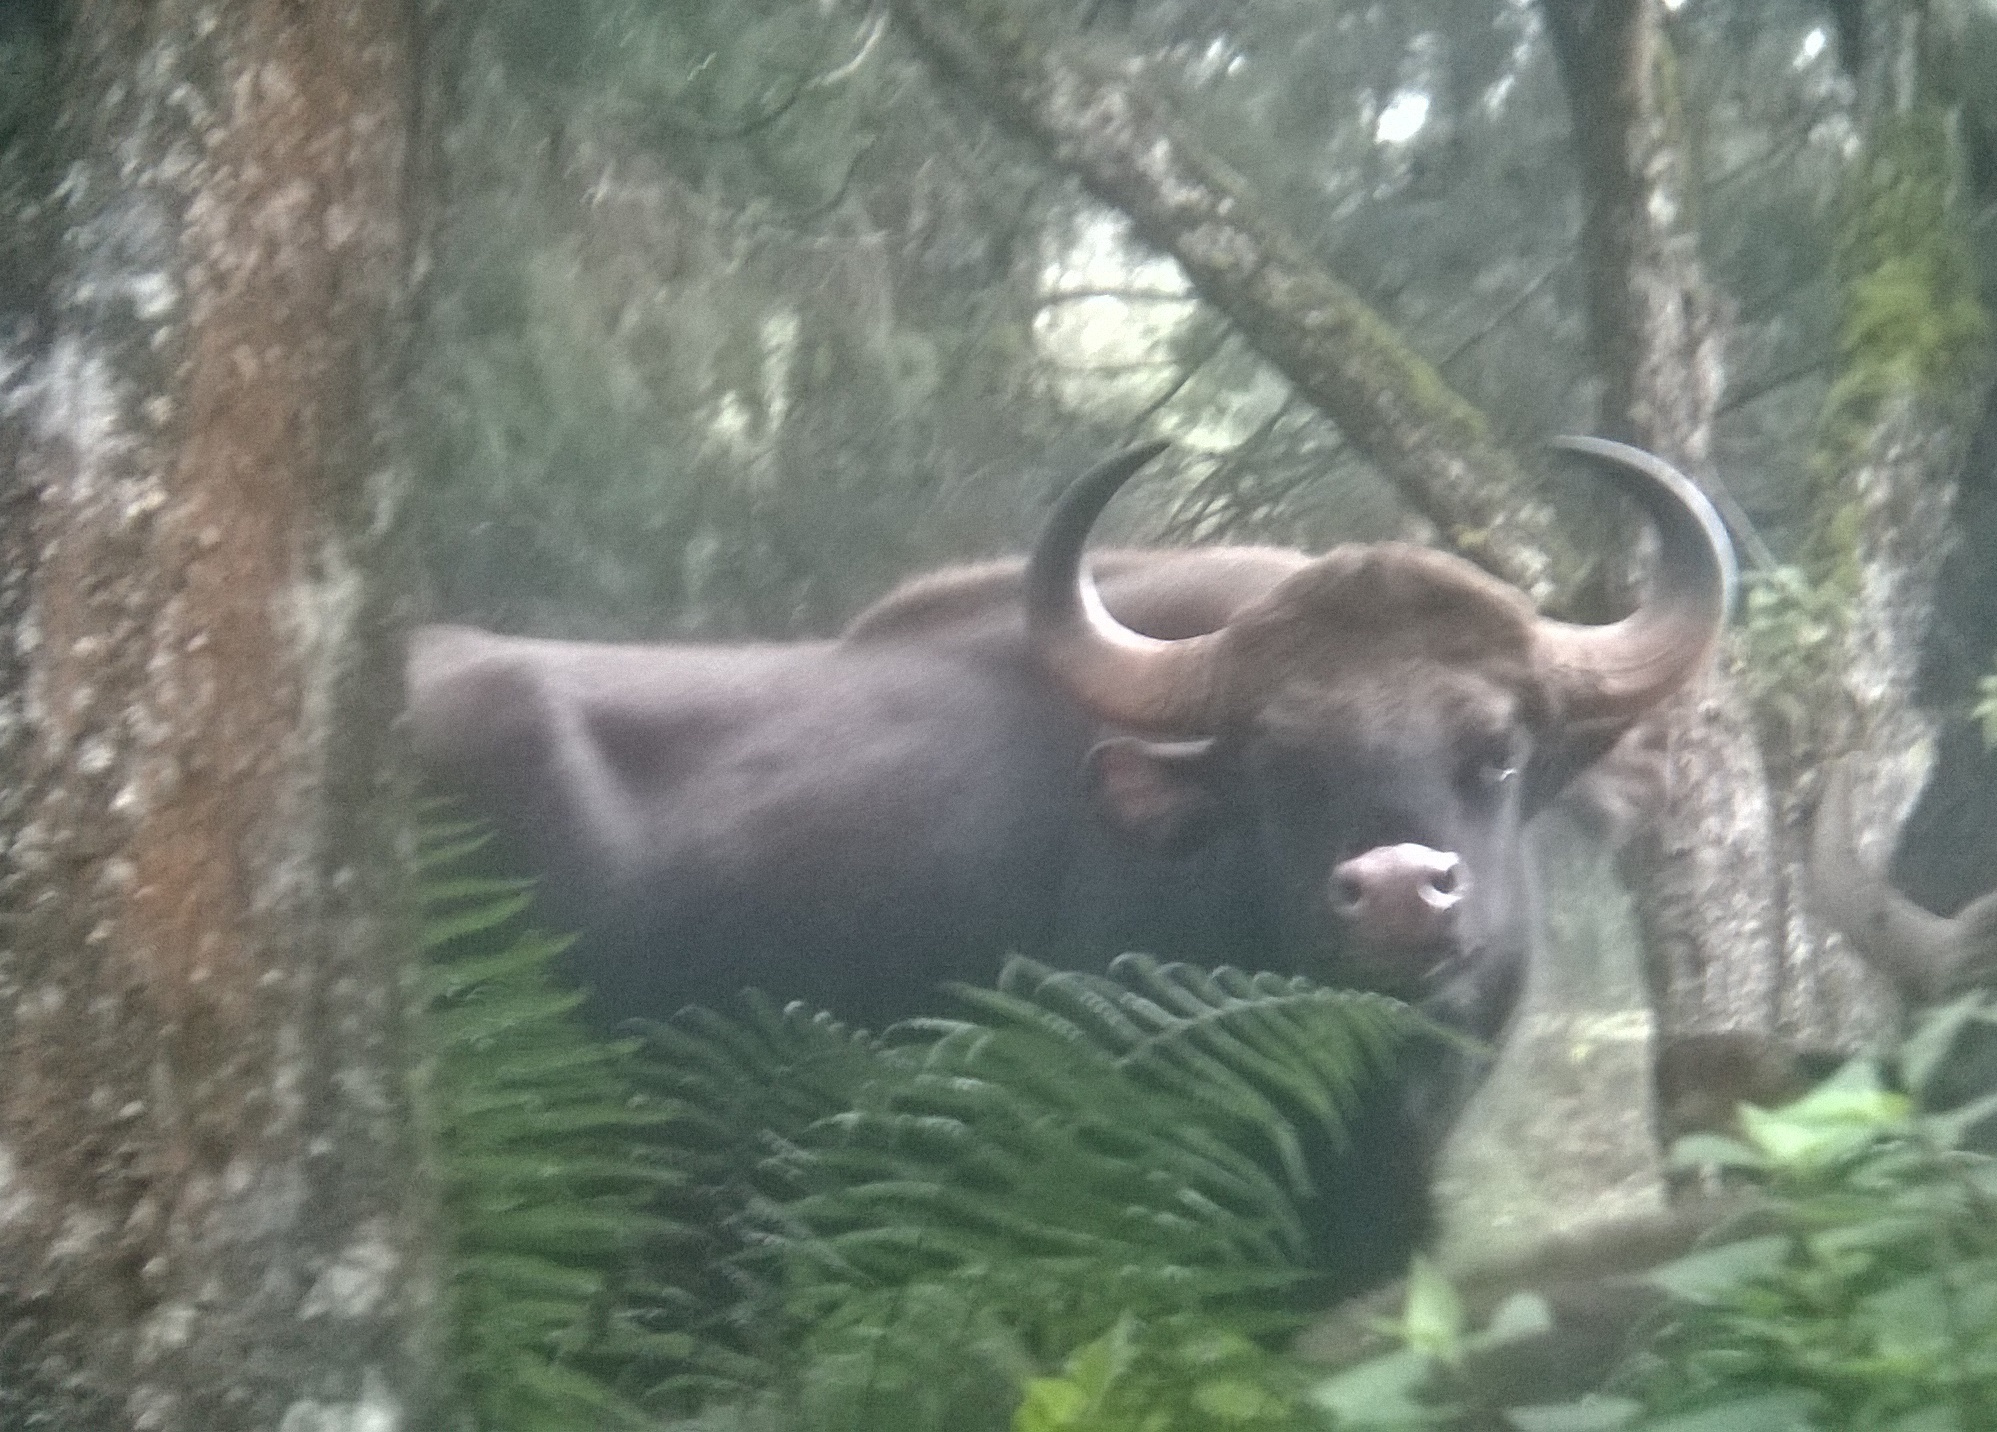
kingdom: Animalia
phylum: Chordata
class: Mammalia
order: Artiodactyla
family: Bovidae
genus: Bos
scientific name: Bos frontalis
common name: Gaur
